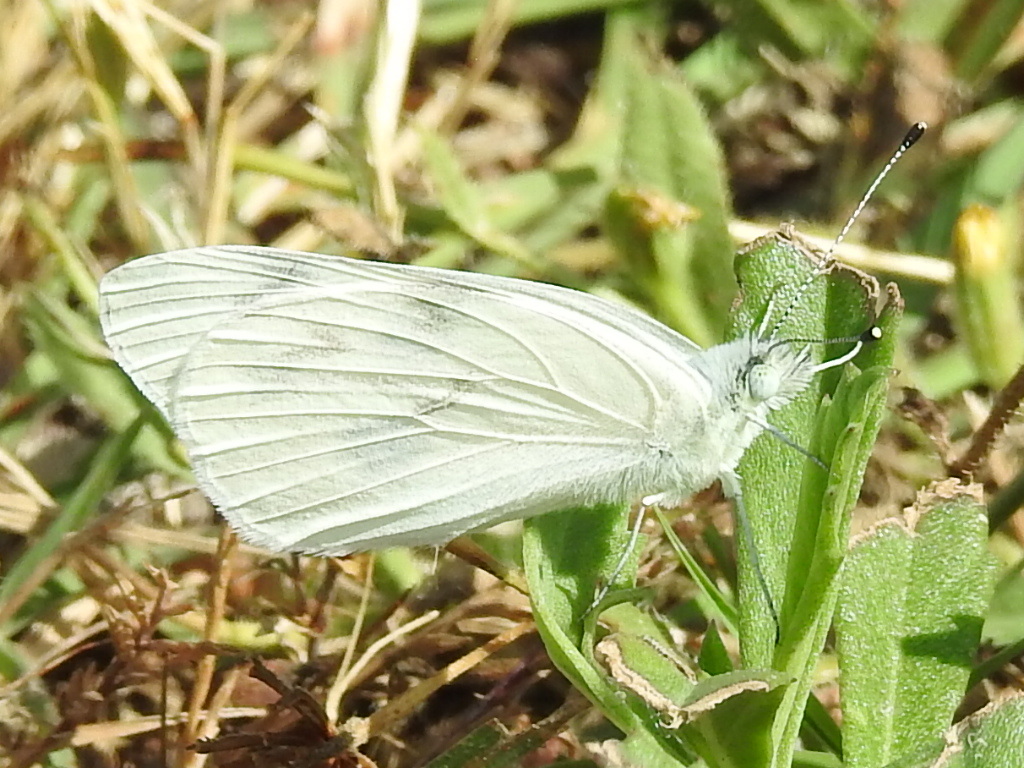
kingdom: Animalia
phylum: Arthropoda
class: Insecta
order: Lepidoptera
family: Pieridae
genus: Pontia
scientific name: Pontia protodice
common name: Checkered white
